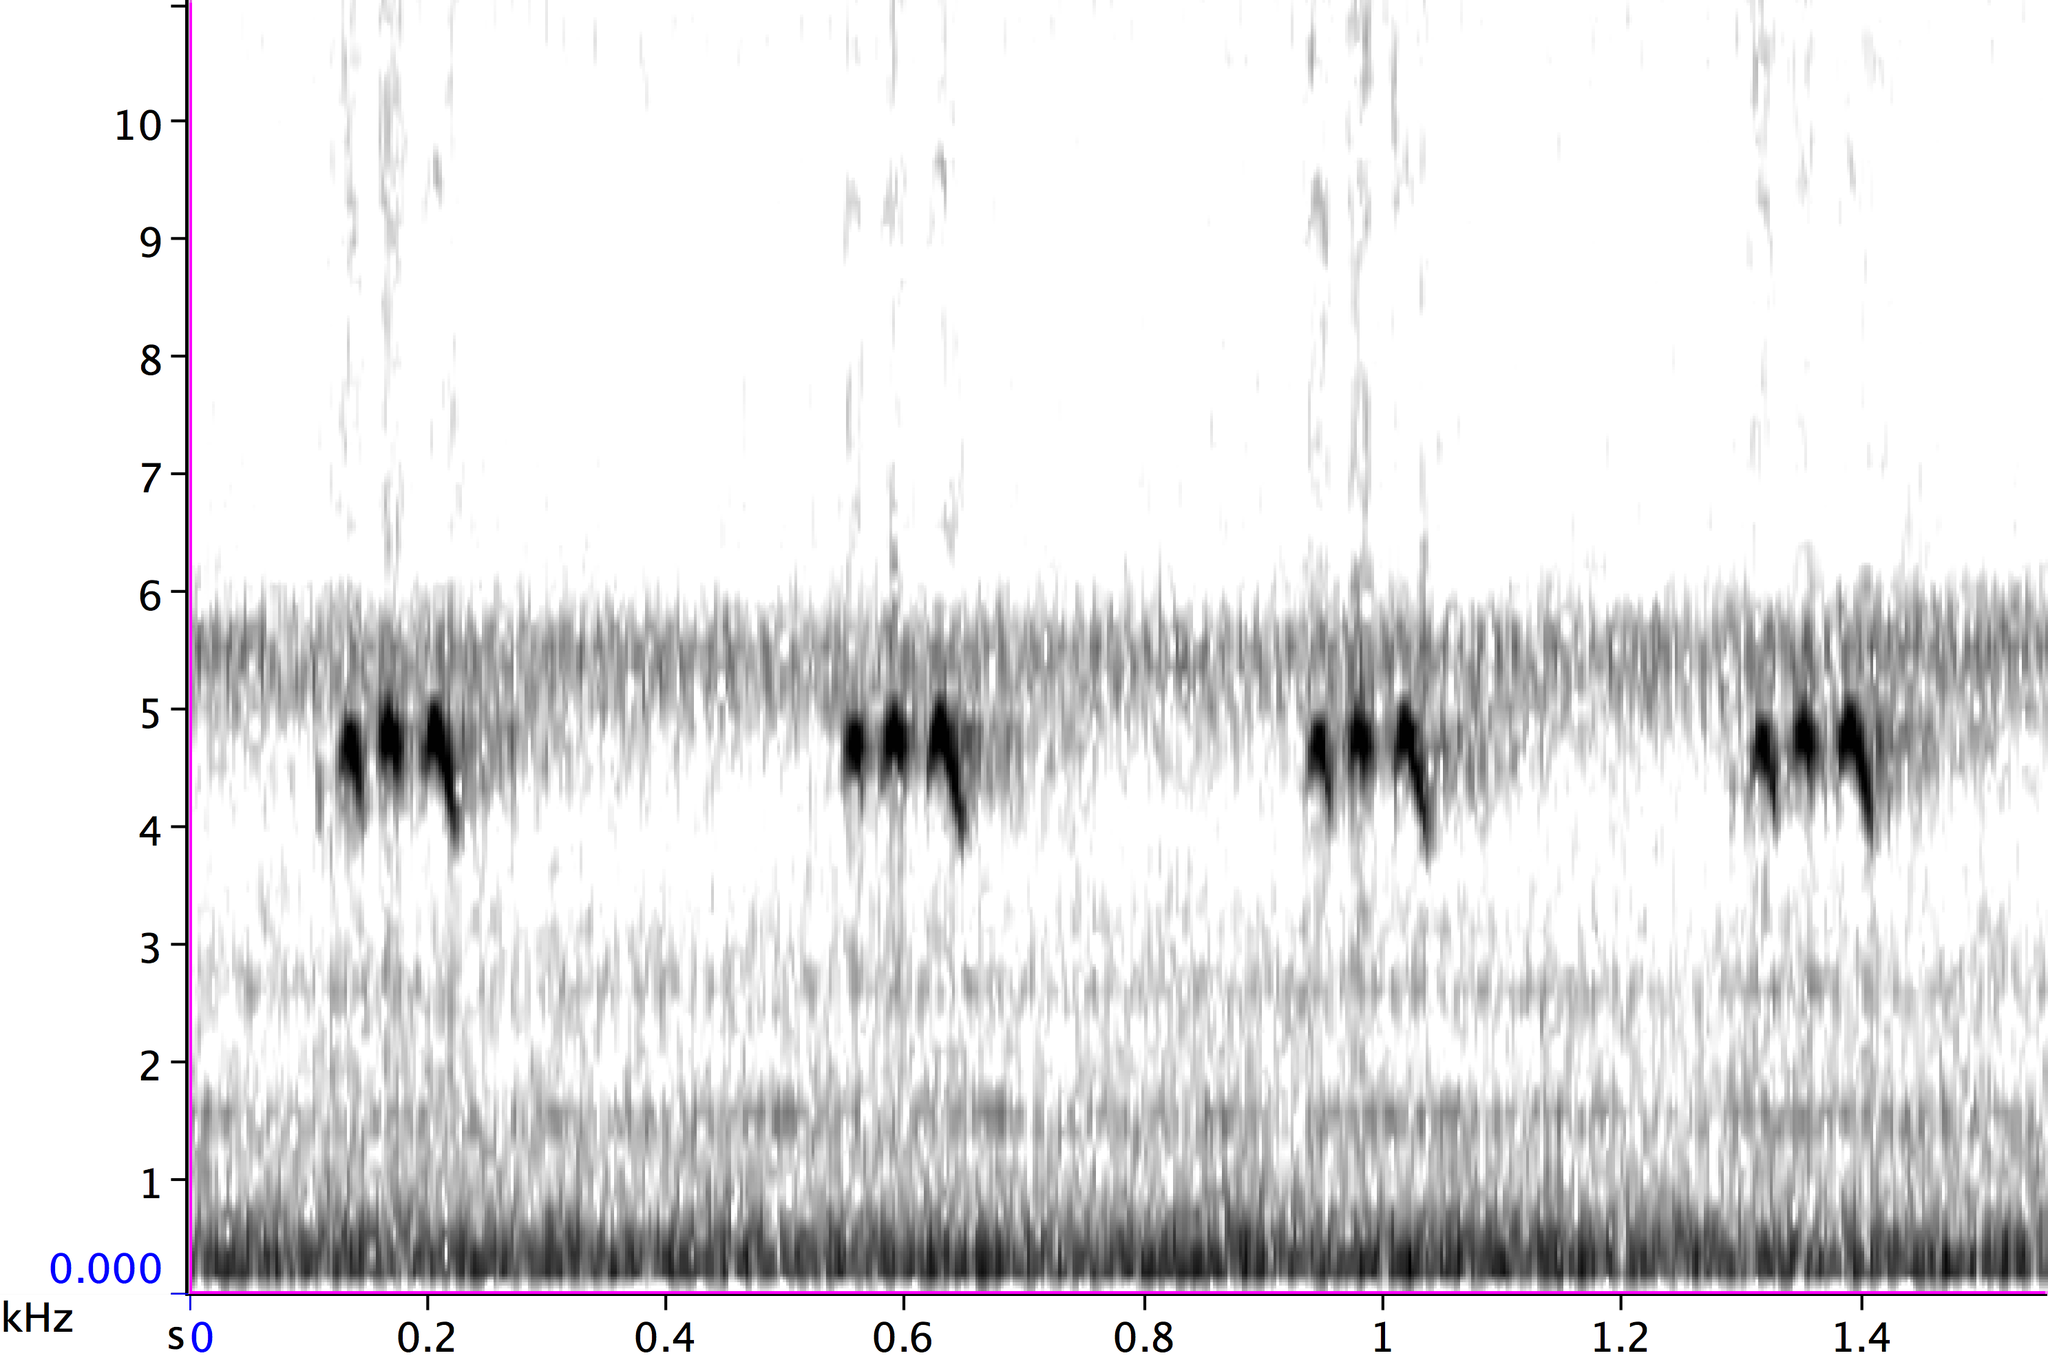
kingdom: Animalia
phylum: Arthropoda
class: Insecta
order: Orthoptera
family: Gryllidae
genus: Gryllus
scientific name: Gryllus pennsylvanicus
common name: Fall field cricket
